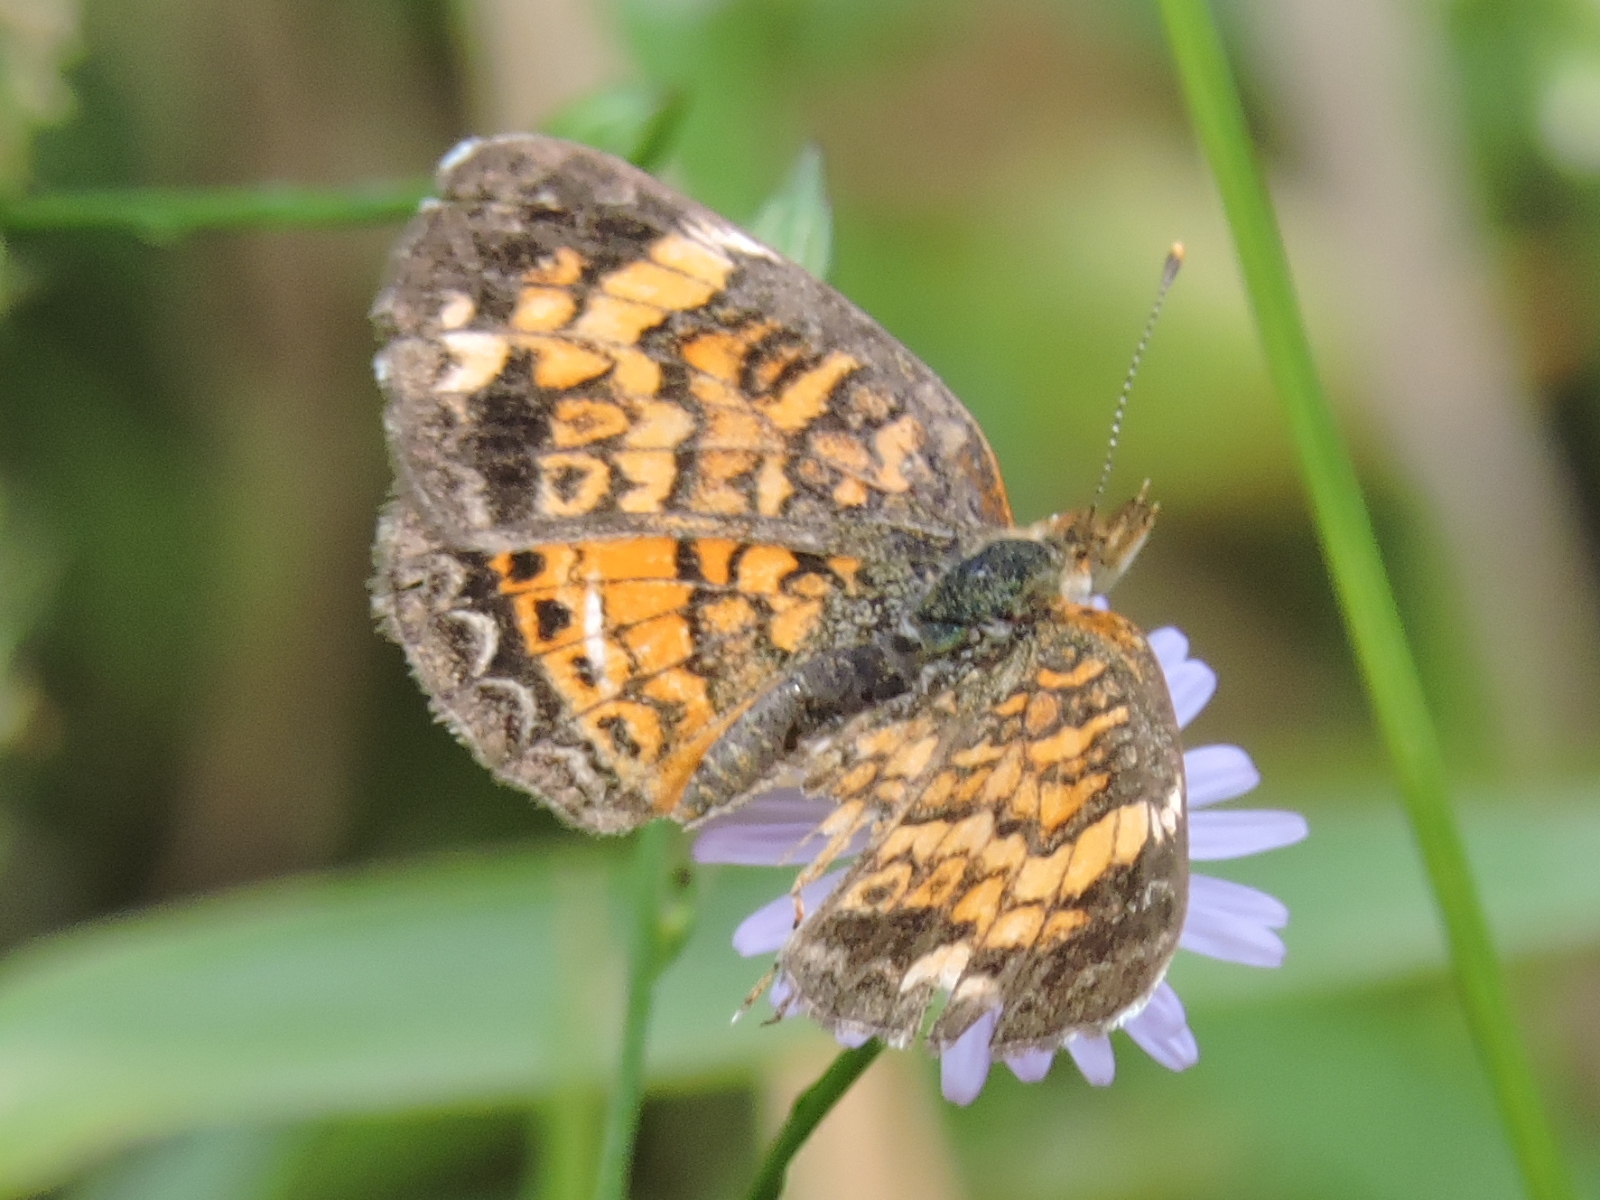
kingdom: Animalia
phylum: Arthropoda
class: Insecta
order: Lepidoptera
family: Nymphalidae
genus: Phyciodes
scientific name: Phyciodes tharos
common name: Pearl crescent
